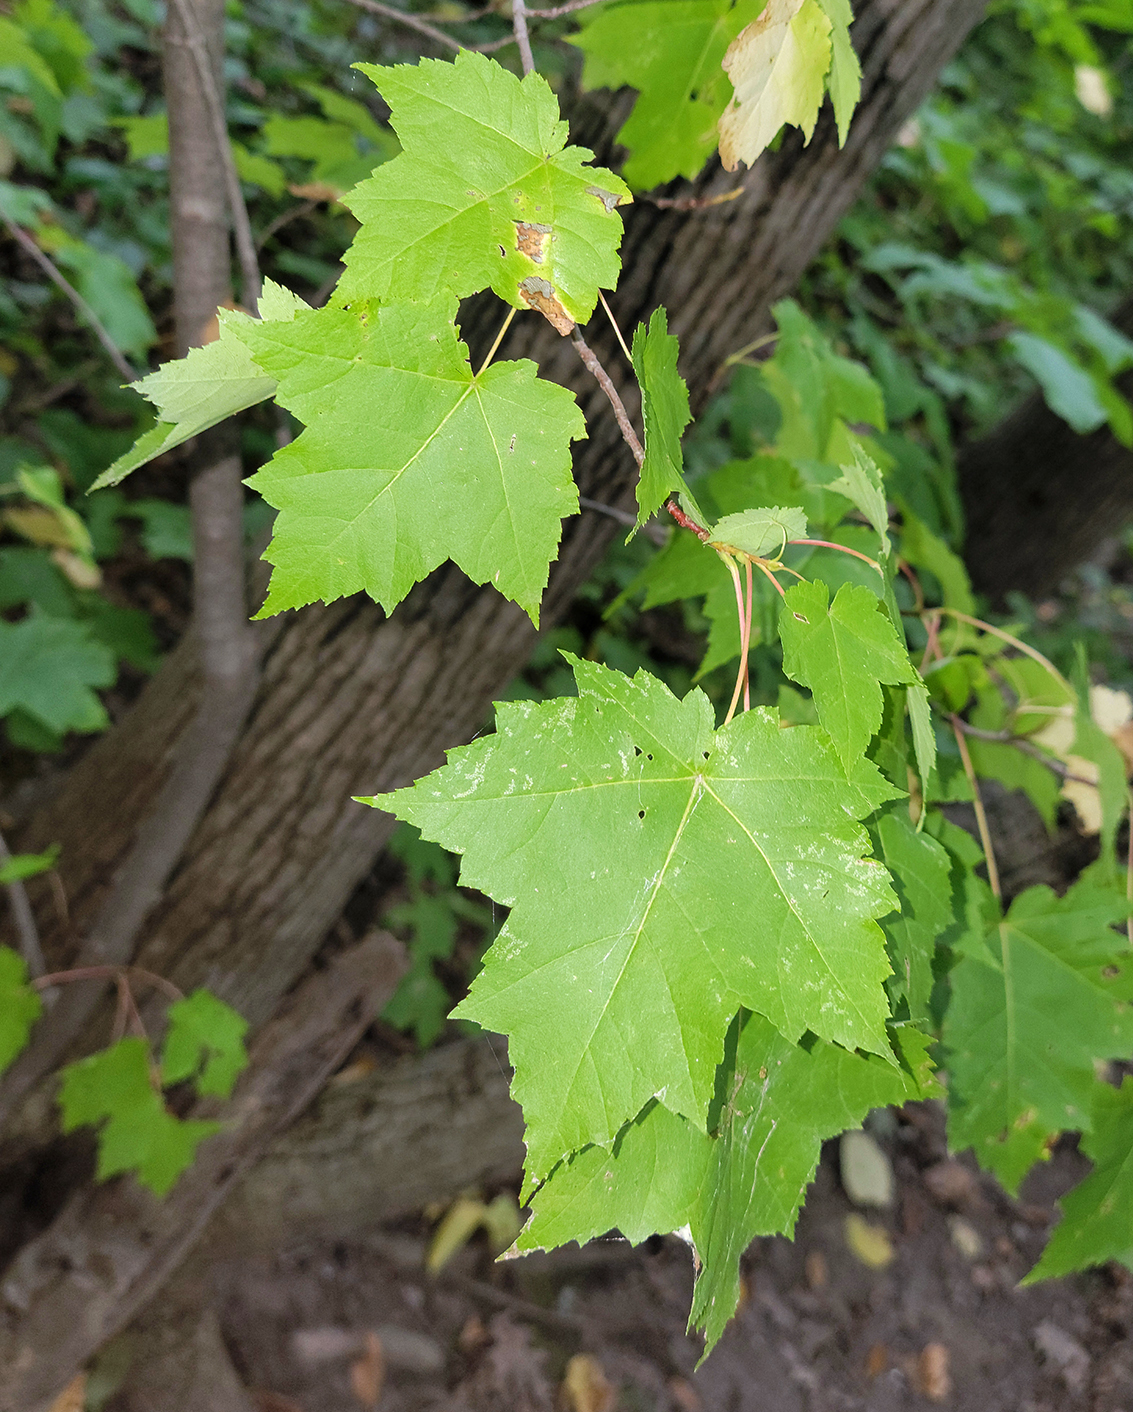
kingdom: Plantae
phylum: Tracheophyta
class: Magnoliopsida
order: Sapindales
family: Sapindaceae
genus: Acer
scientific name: Acer rubrum
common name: Red maple
